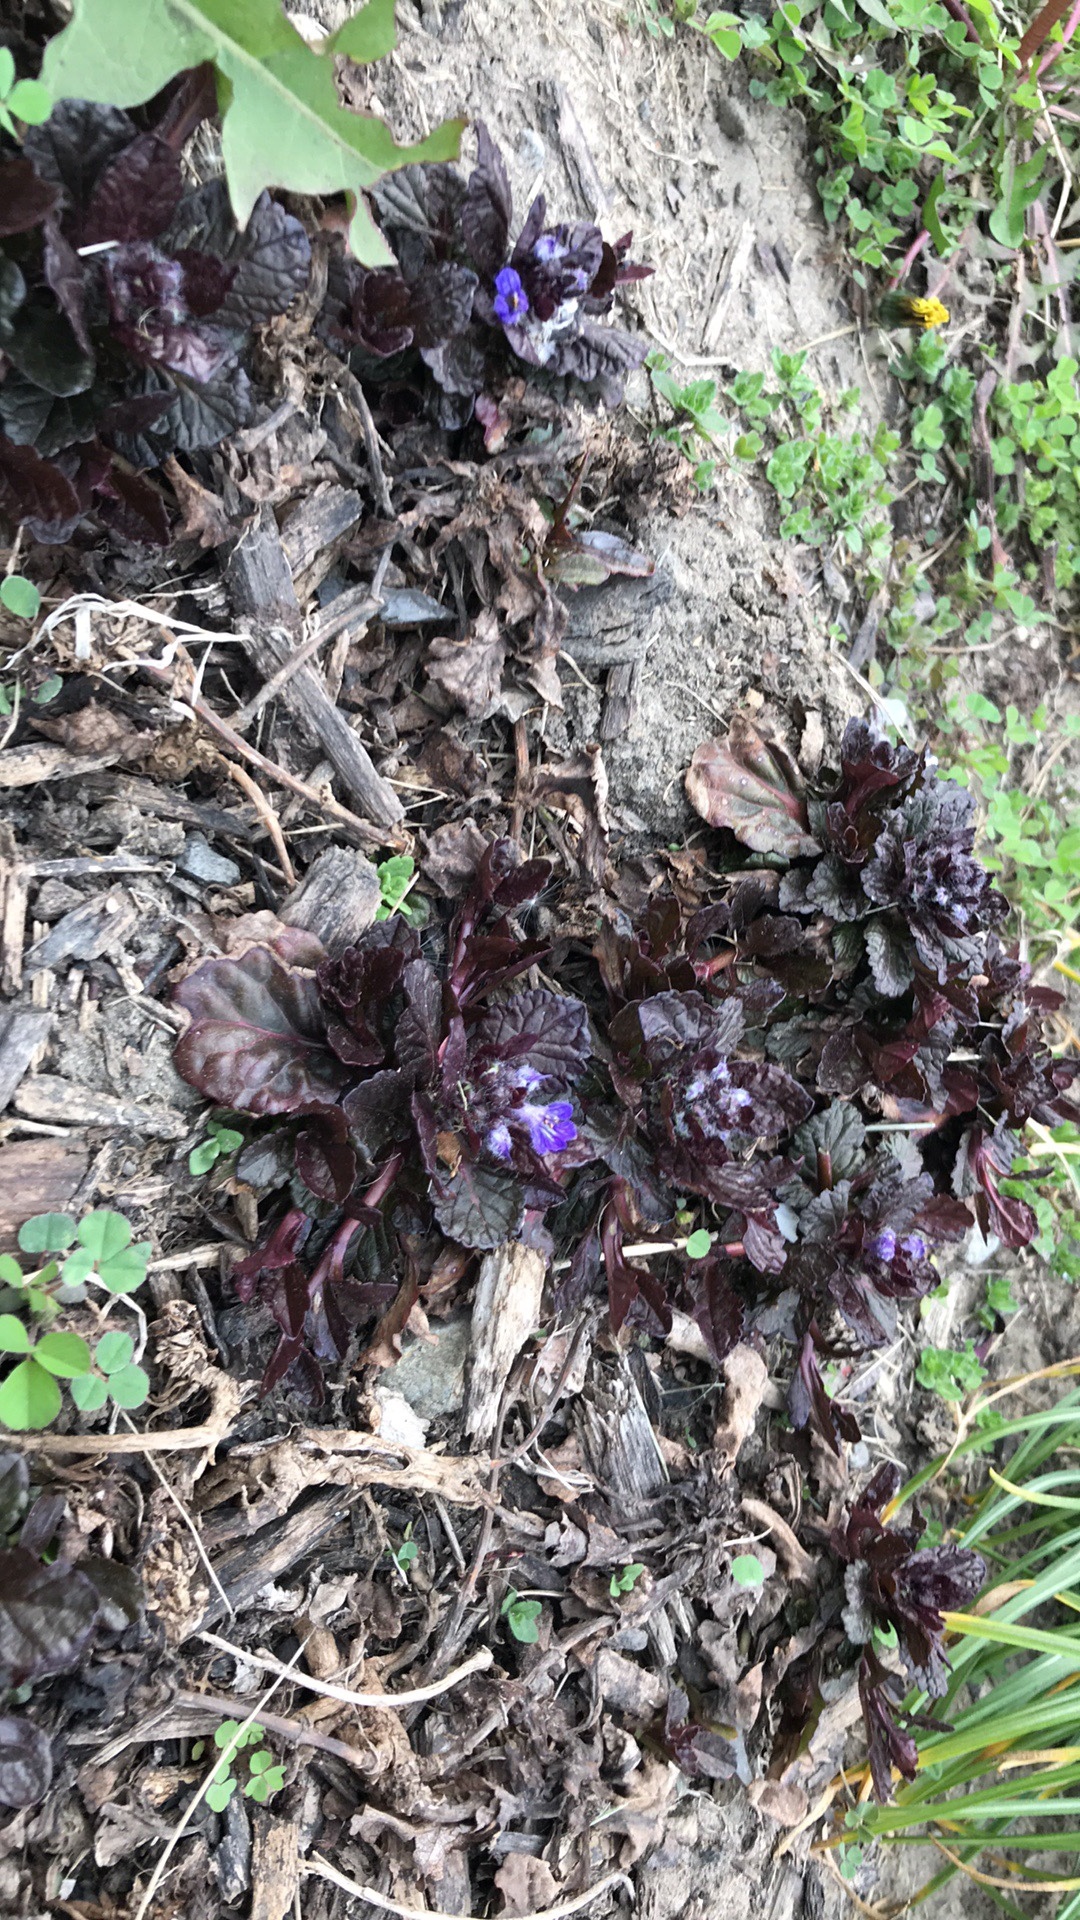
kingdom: Plantae
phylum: Tracheophyta
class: Magnoliopsida
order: Lamiales
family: Lamiaceae
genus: Ajuga
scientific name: Ajuga reptans
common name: Bugle
